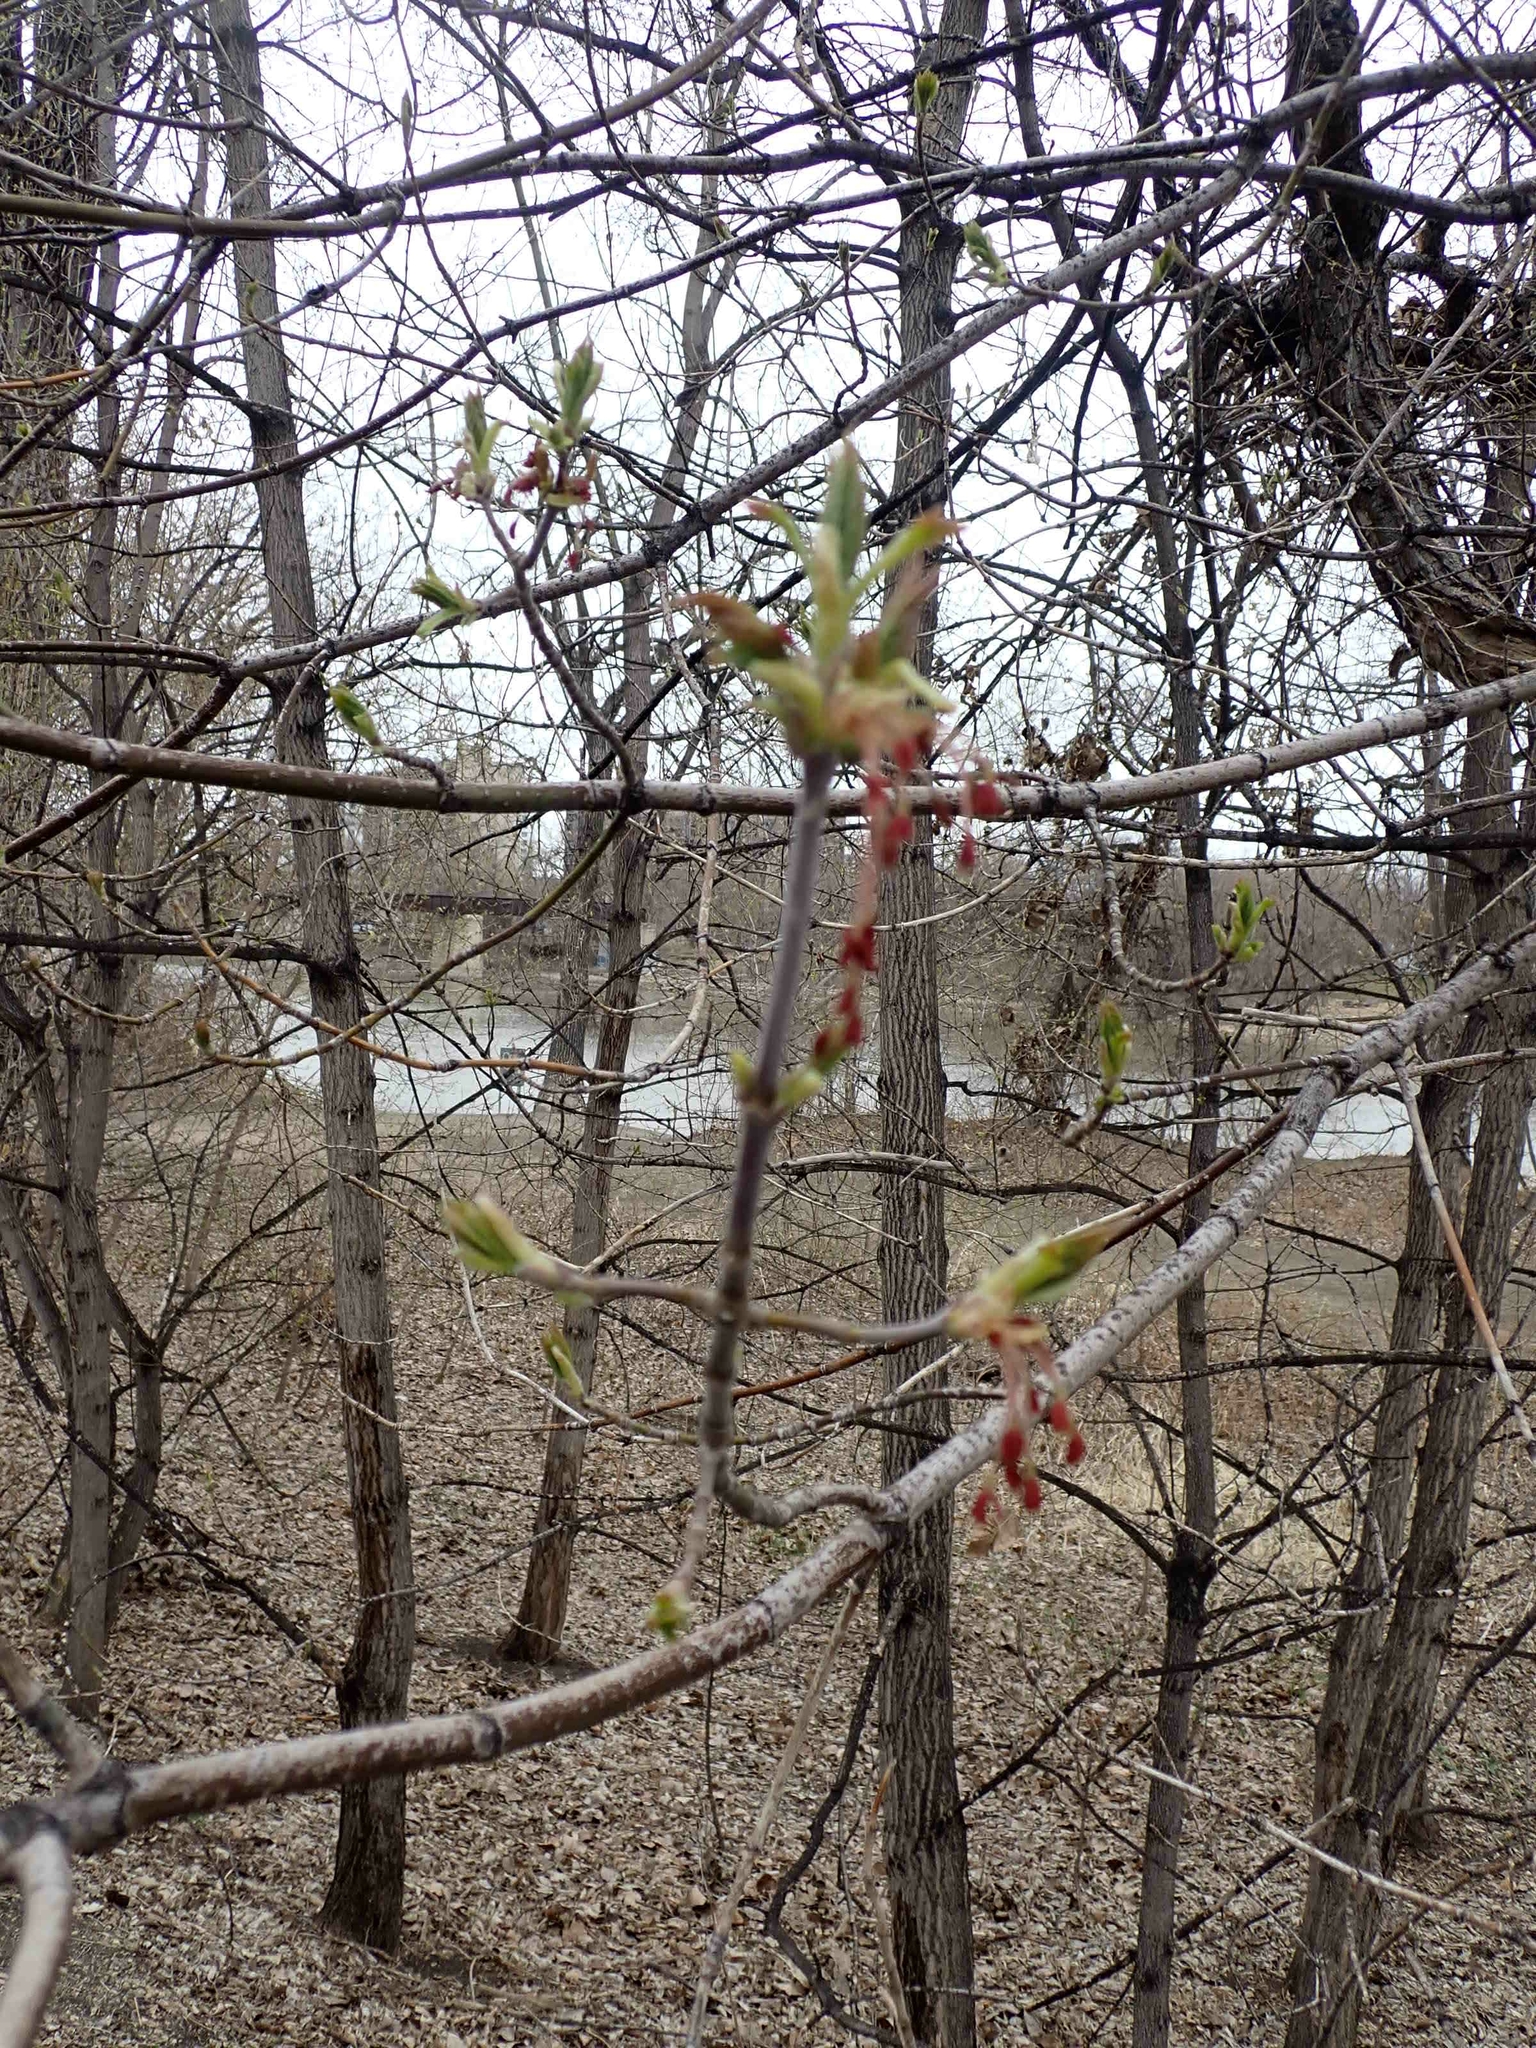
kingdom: Plantae
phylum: Tracheophyta
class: Magnoliopsida
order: Sapindales
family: Sapindaceae
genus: Acer
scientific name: Acer negundo
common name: Ashleaf maple
